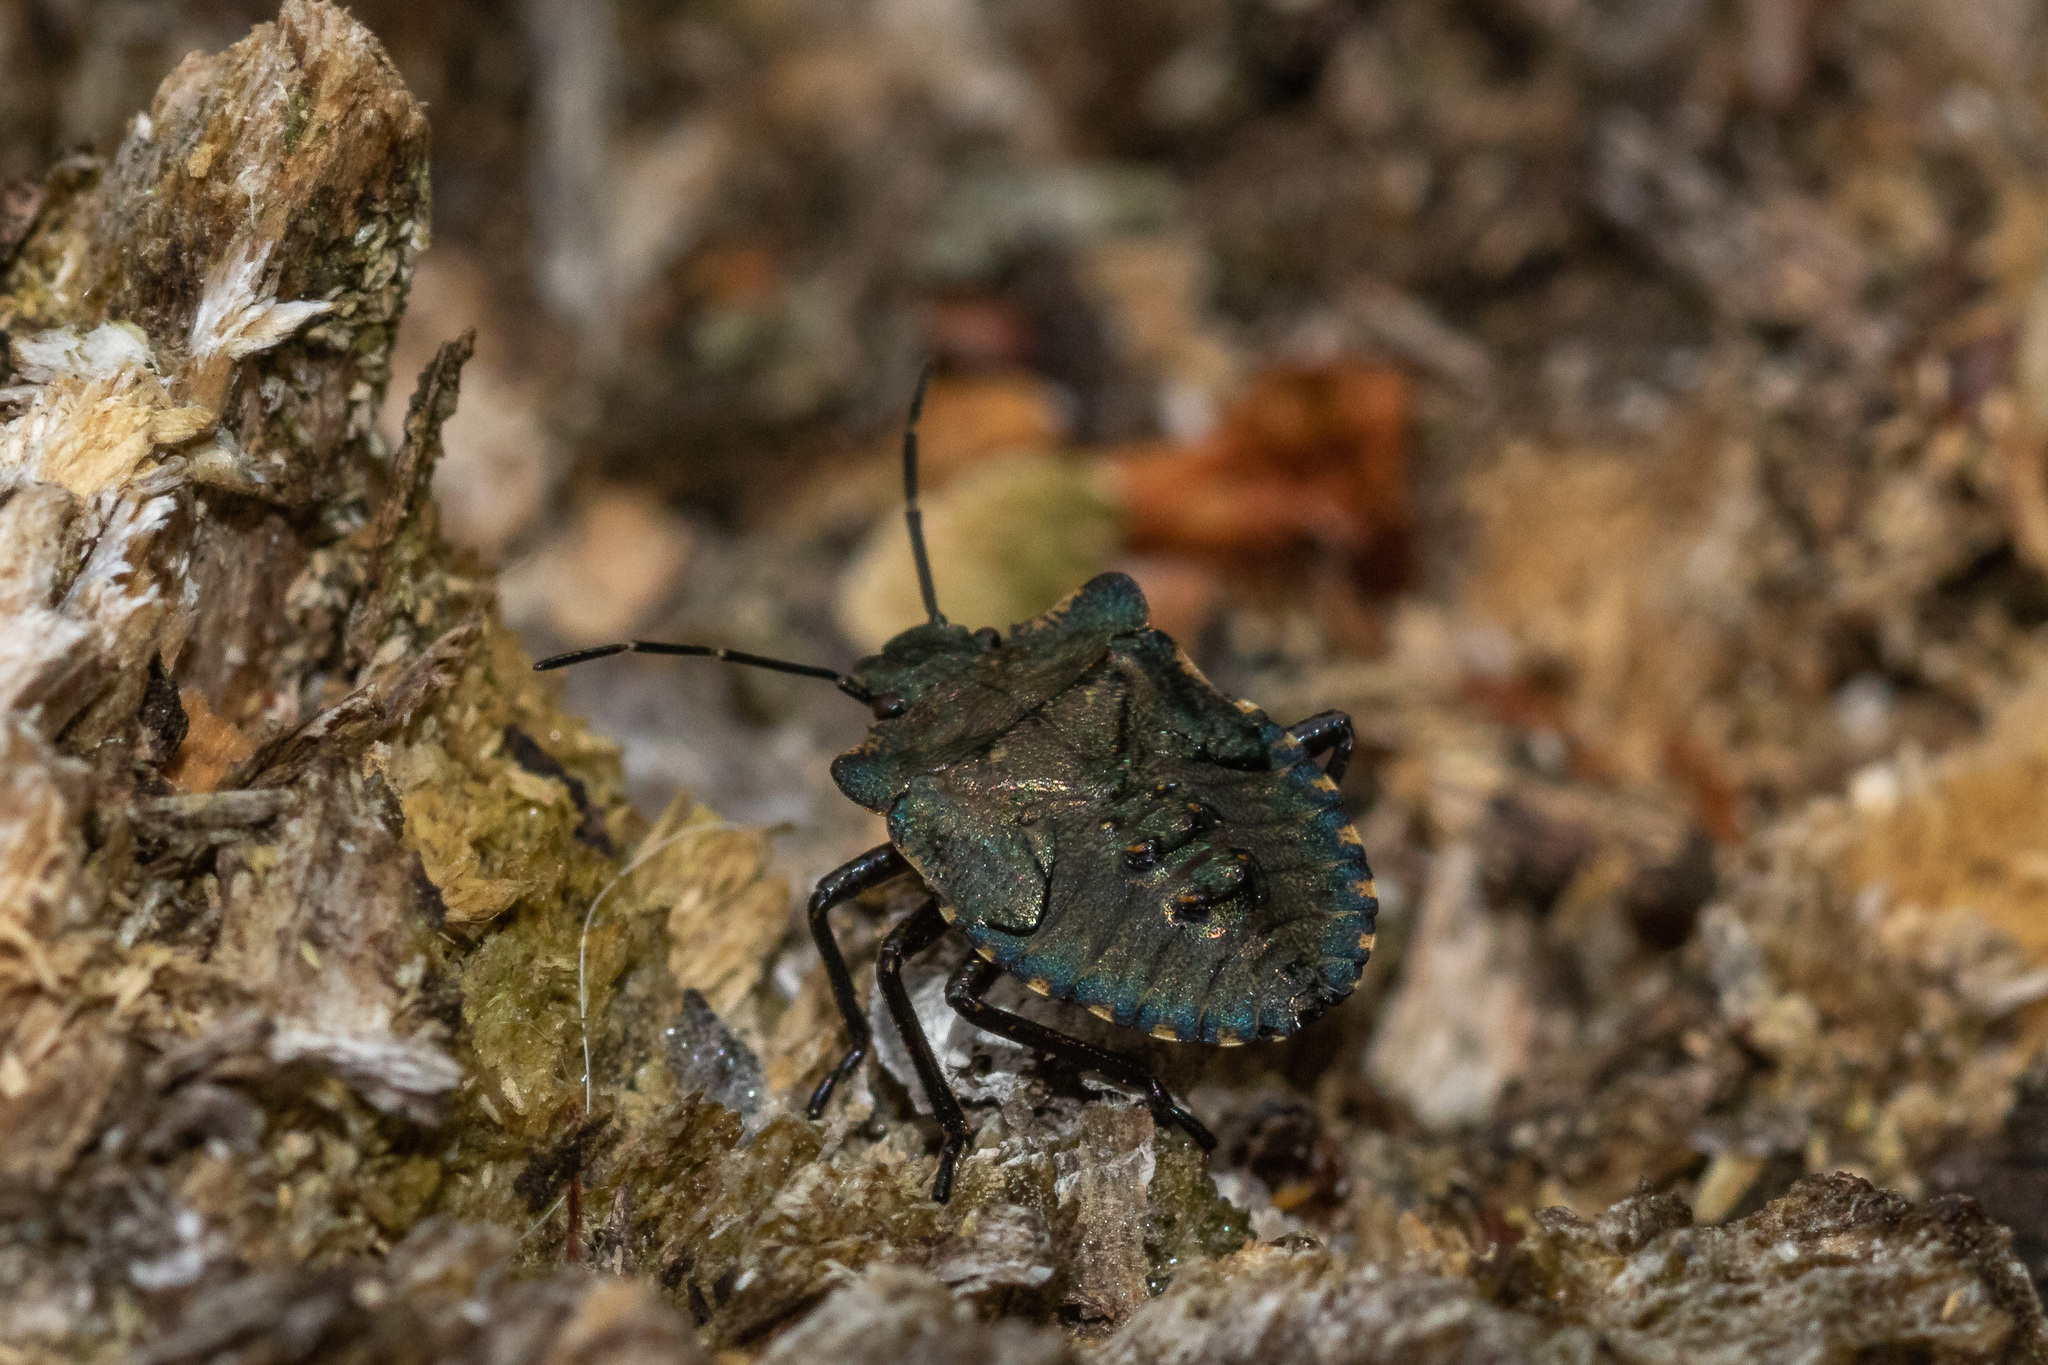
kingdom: Animalia
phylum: Arthropoda
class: Insecta
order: Hemiptera
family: Pentatomidae
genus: Pentatoma
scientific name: Pentatoma rufipes
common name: Forest bug
